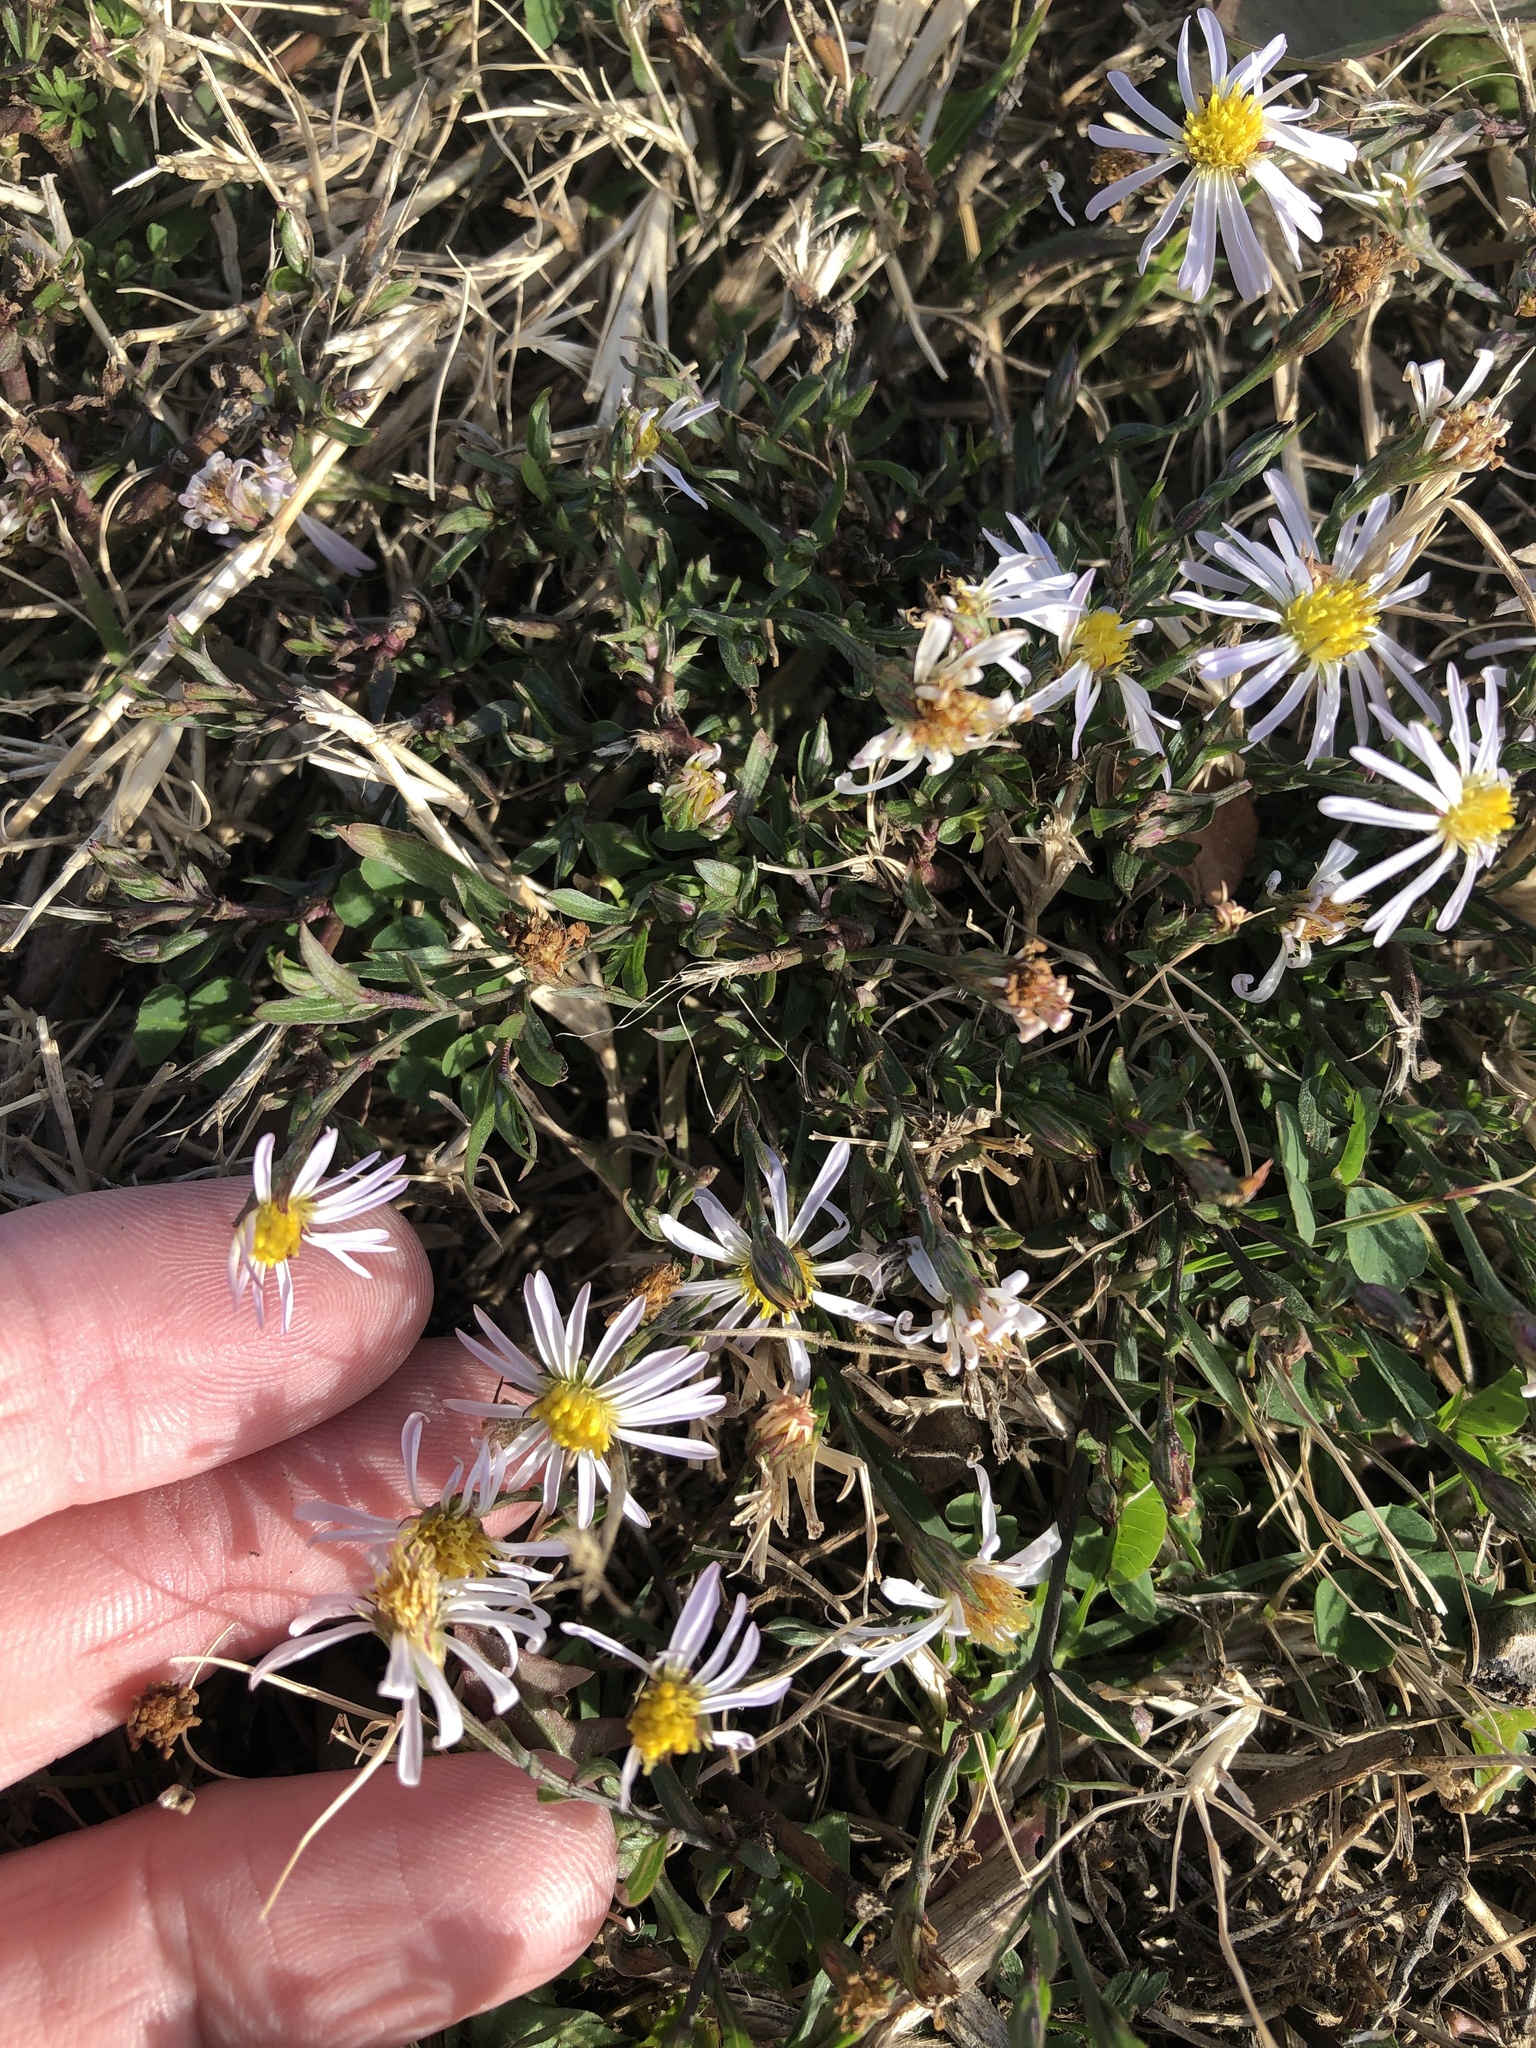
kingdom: Plantae
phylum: Tracheophyta
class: Magnoliopsida
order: Asterales
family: Asteraceae
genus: Symphyotrichum
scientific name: Symphyotrichum divaricatum
